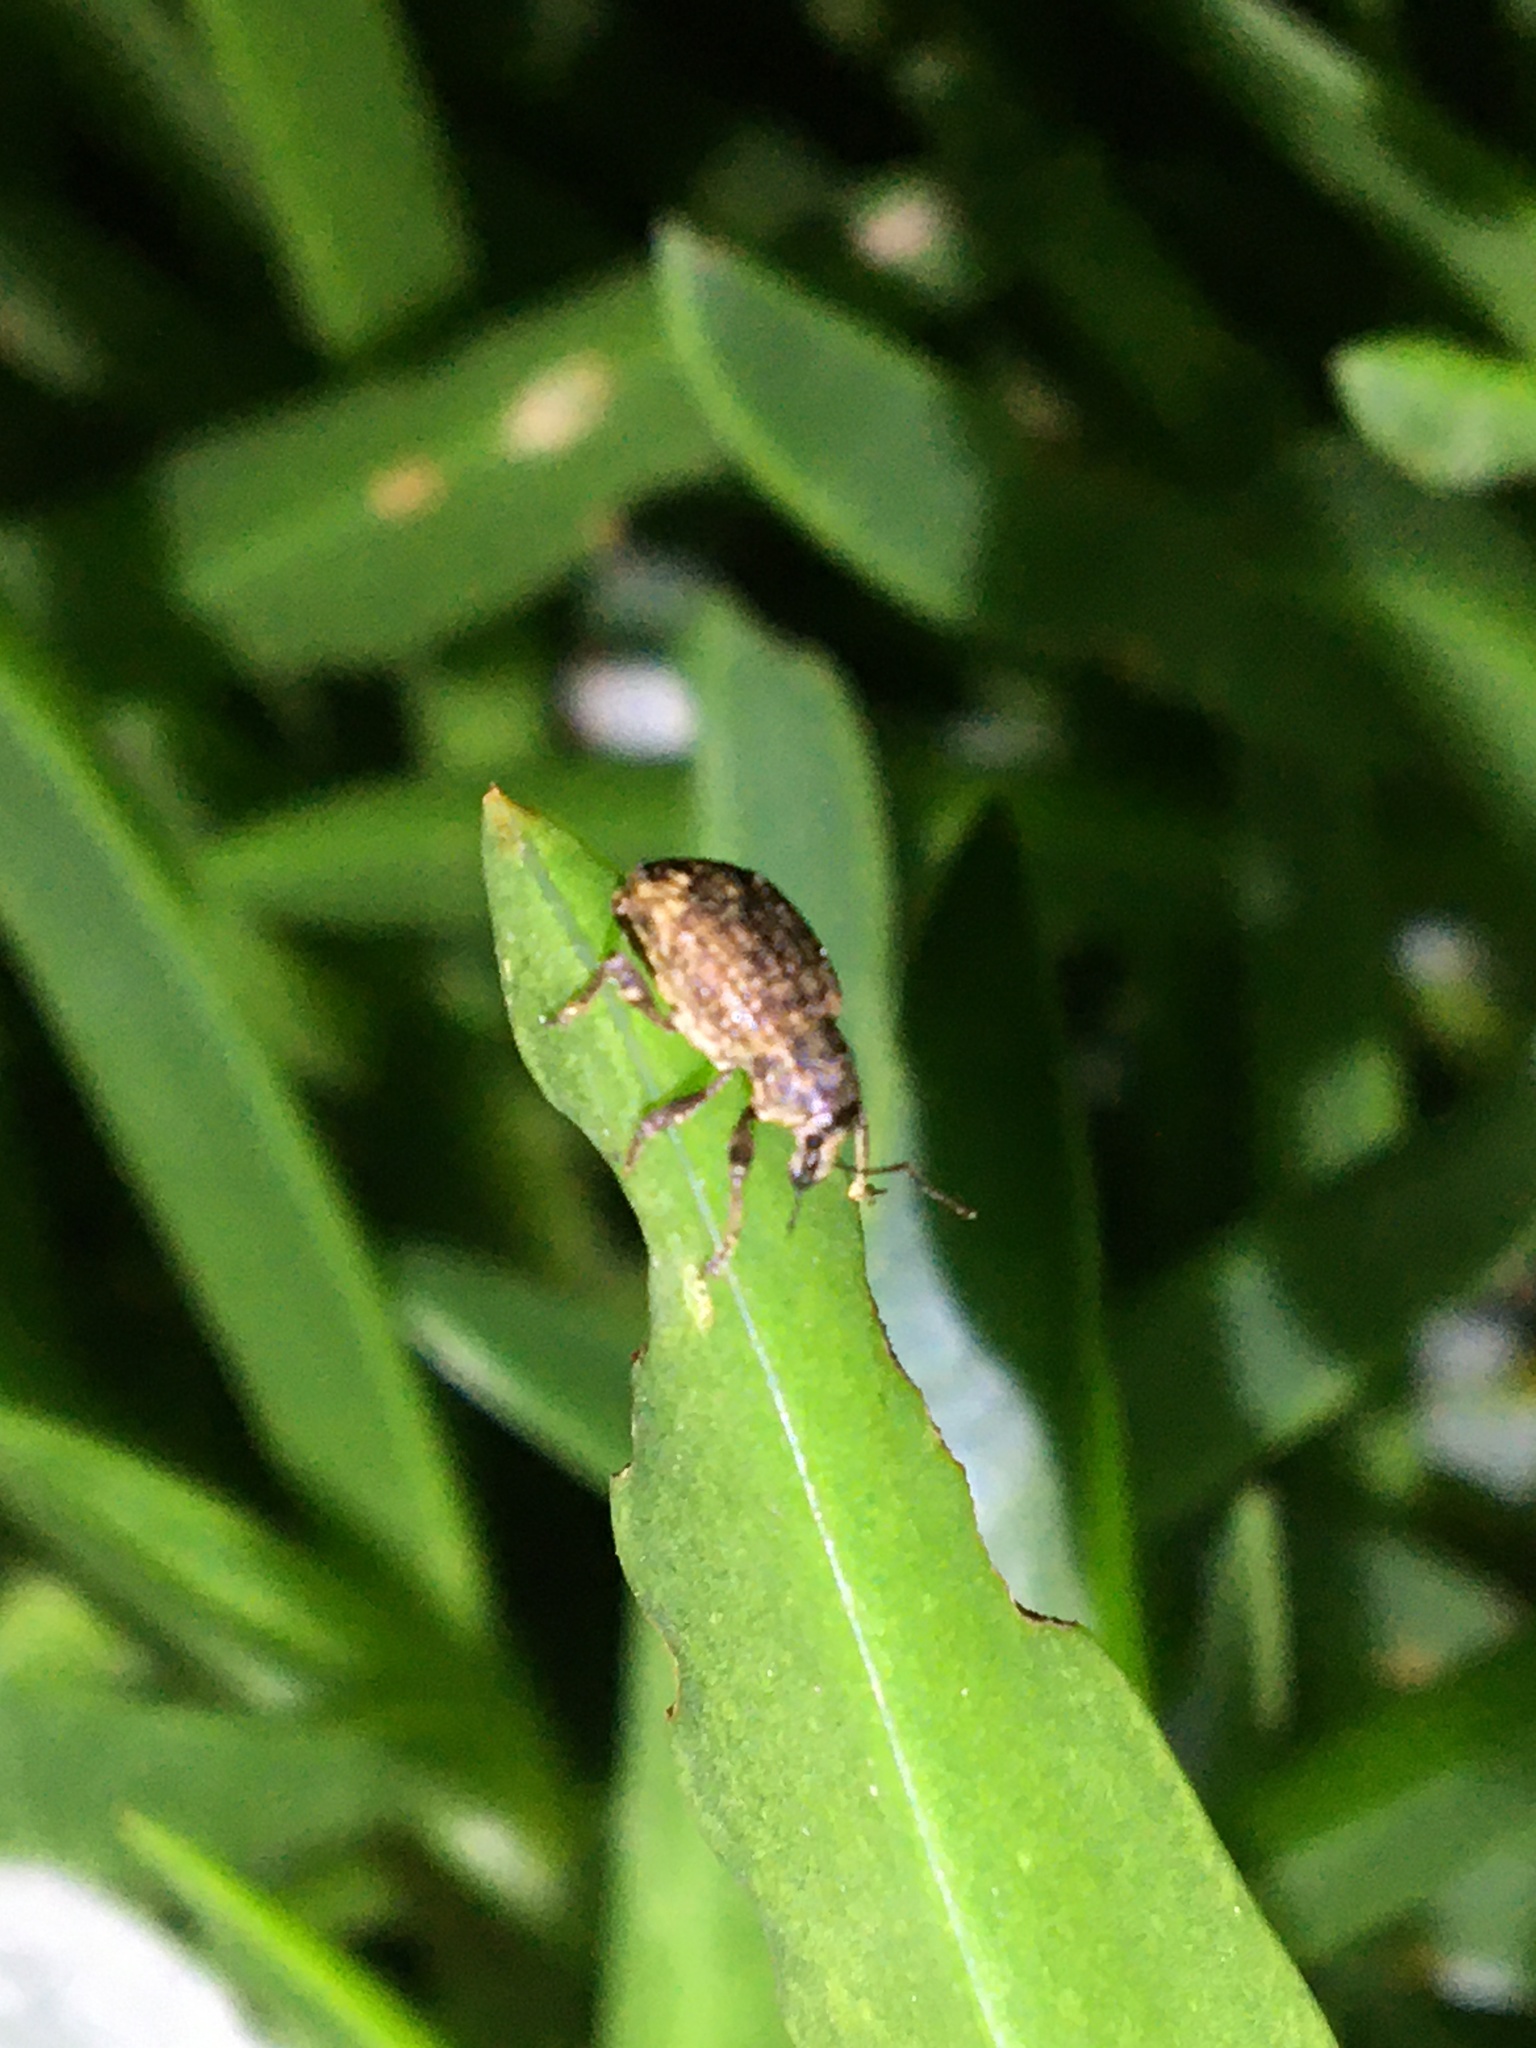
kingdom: Animalia
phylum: Arthropoda
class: Insecta
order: Coleoptera
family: Curculionidae
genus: Phlyctinus
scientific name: Phlyctinus callosus
